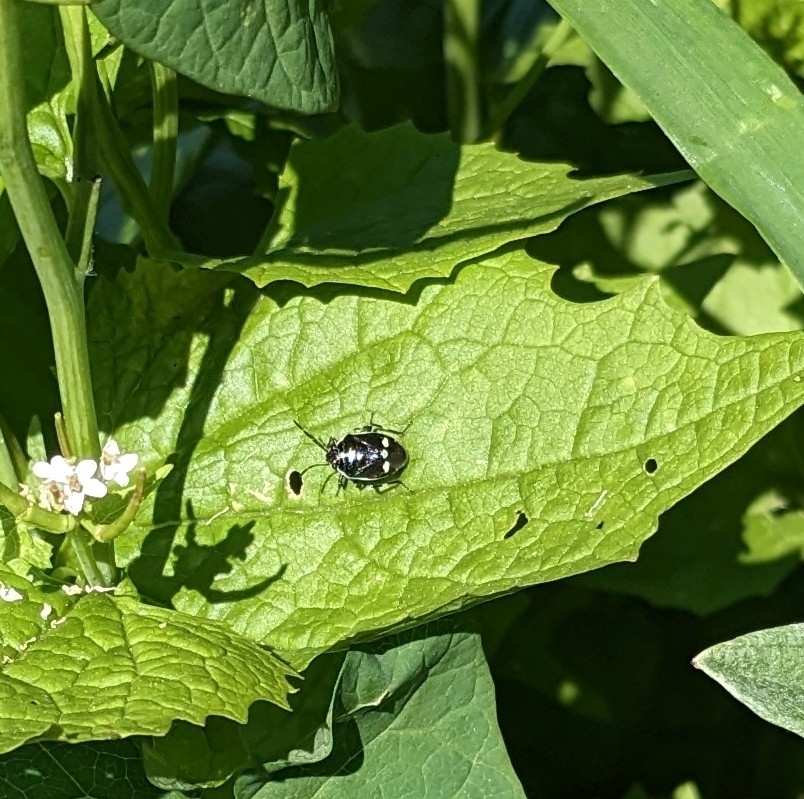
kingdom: Animalia
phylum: Arthropoda
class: Insecta
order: Hemiptera
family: Pentatomidae
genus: Eurydema
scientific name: Eurydema oleracea
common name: Cabbage bug
